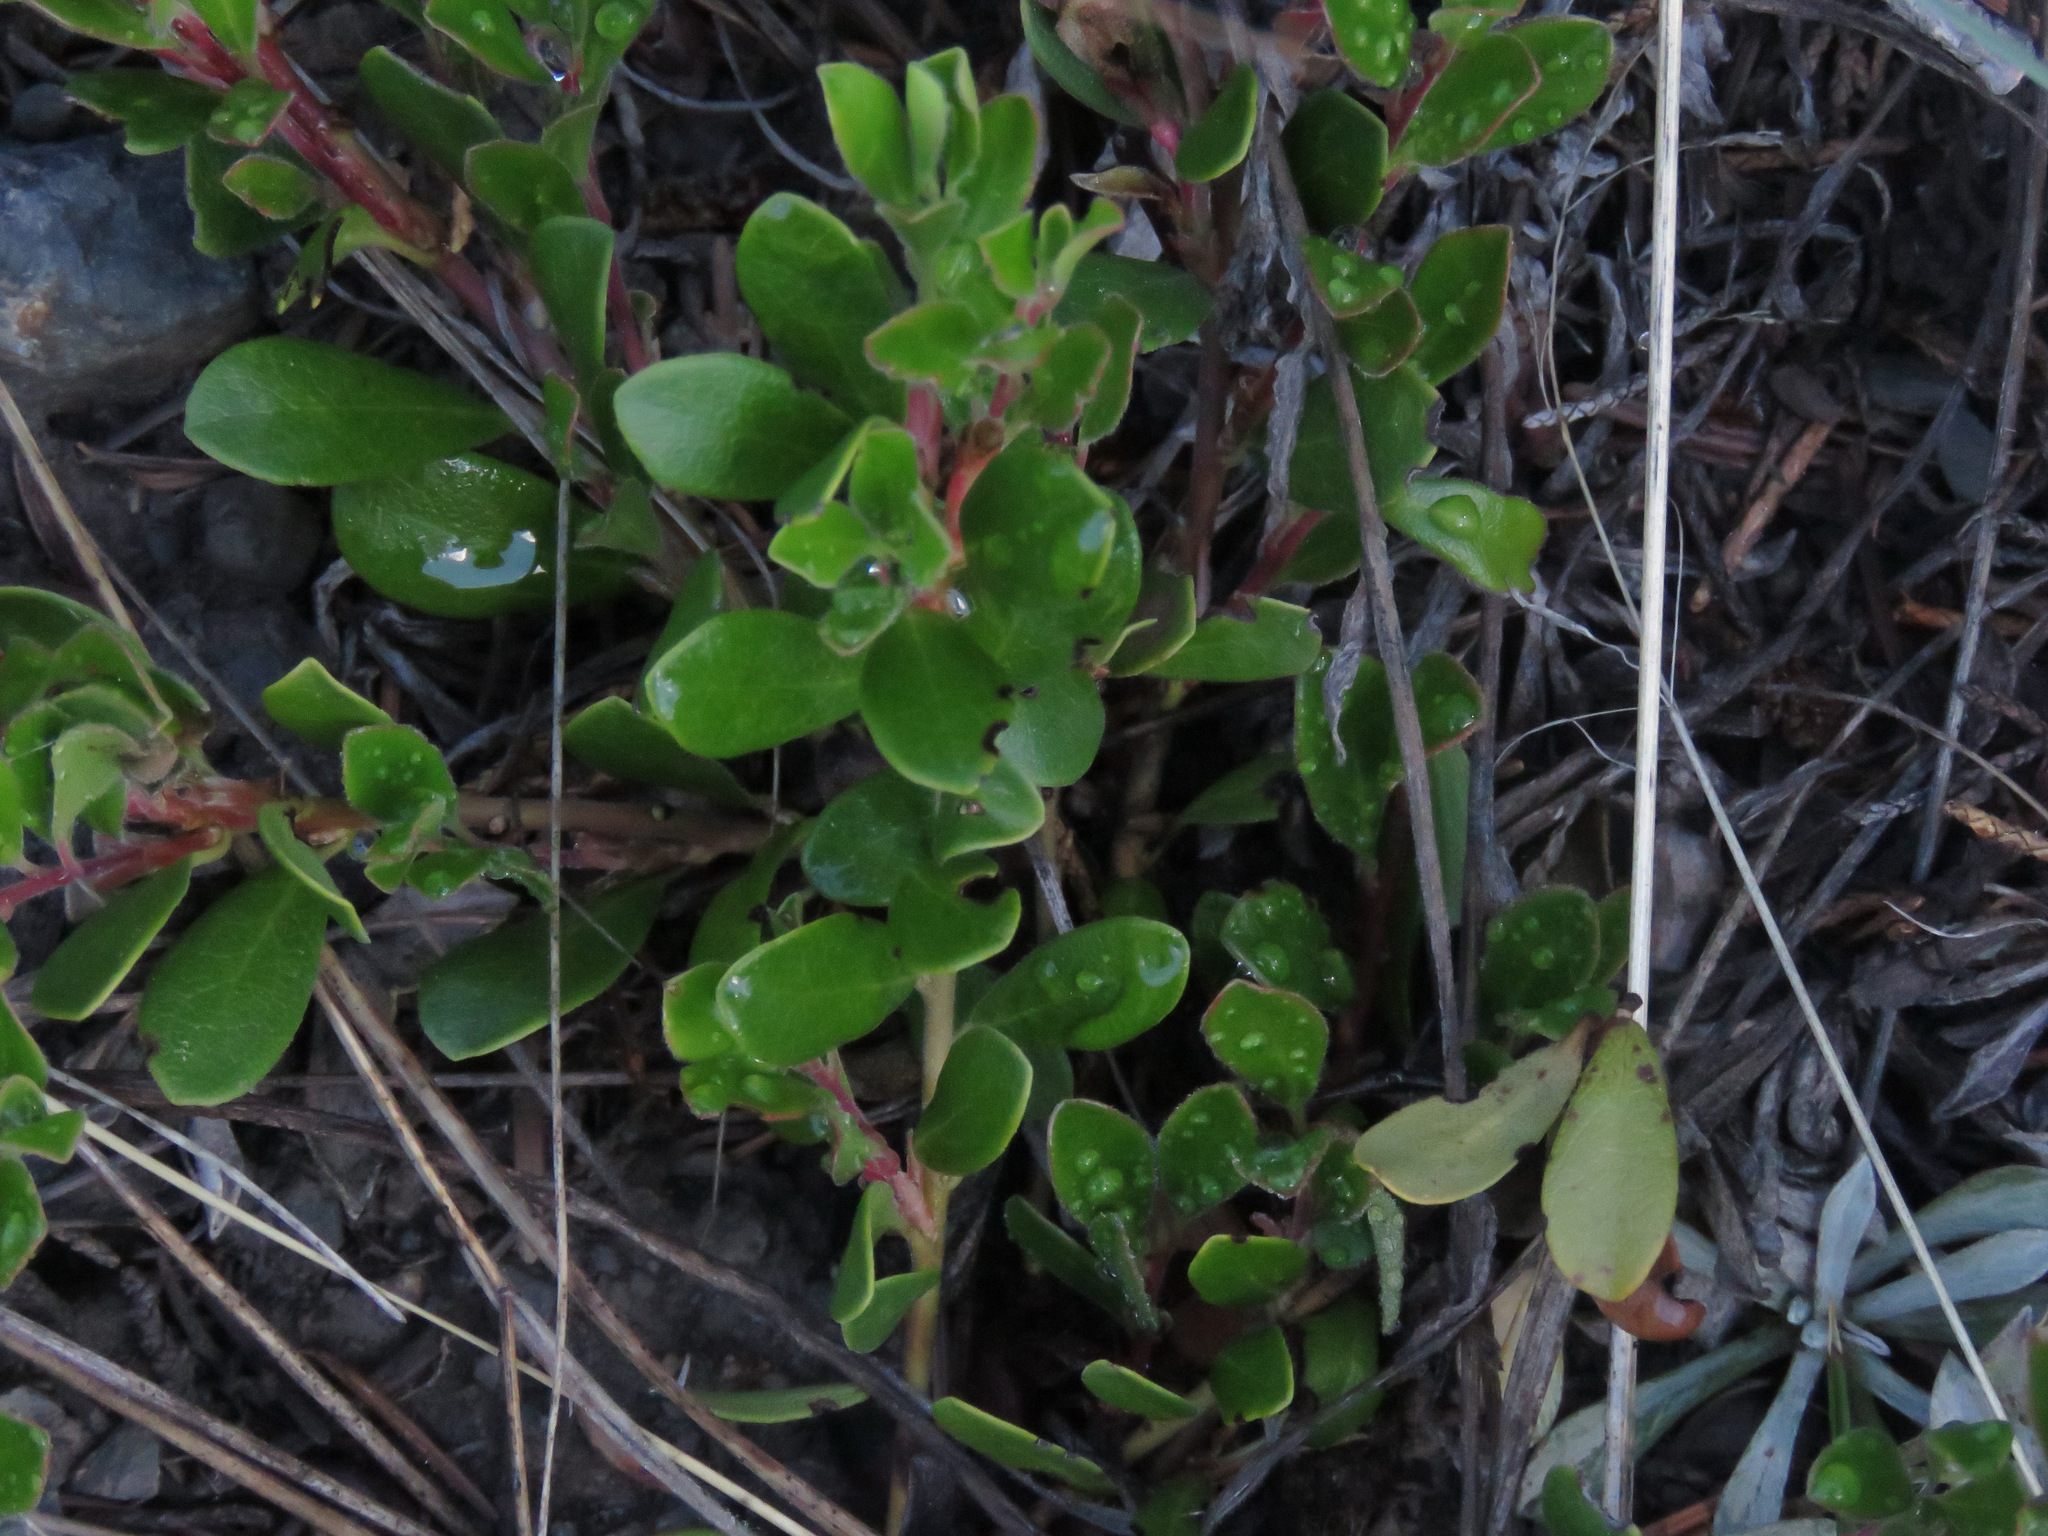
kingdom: Plantae
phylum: Tracheophyta
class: Magnoliopsida
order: Ericales
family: Ericaceae
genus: Arctostaphylos
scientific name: Arctostaphylos uva-ursi
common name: Bearberry
